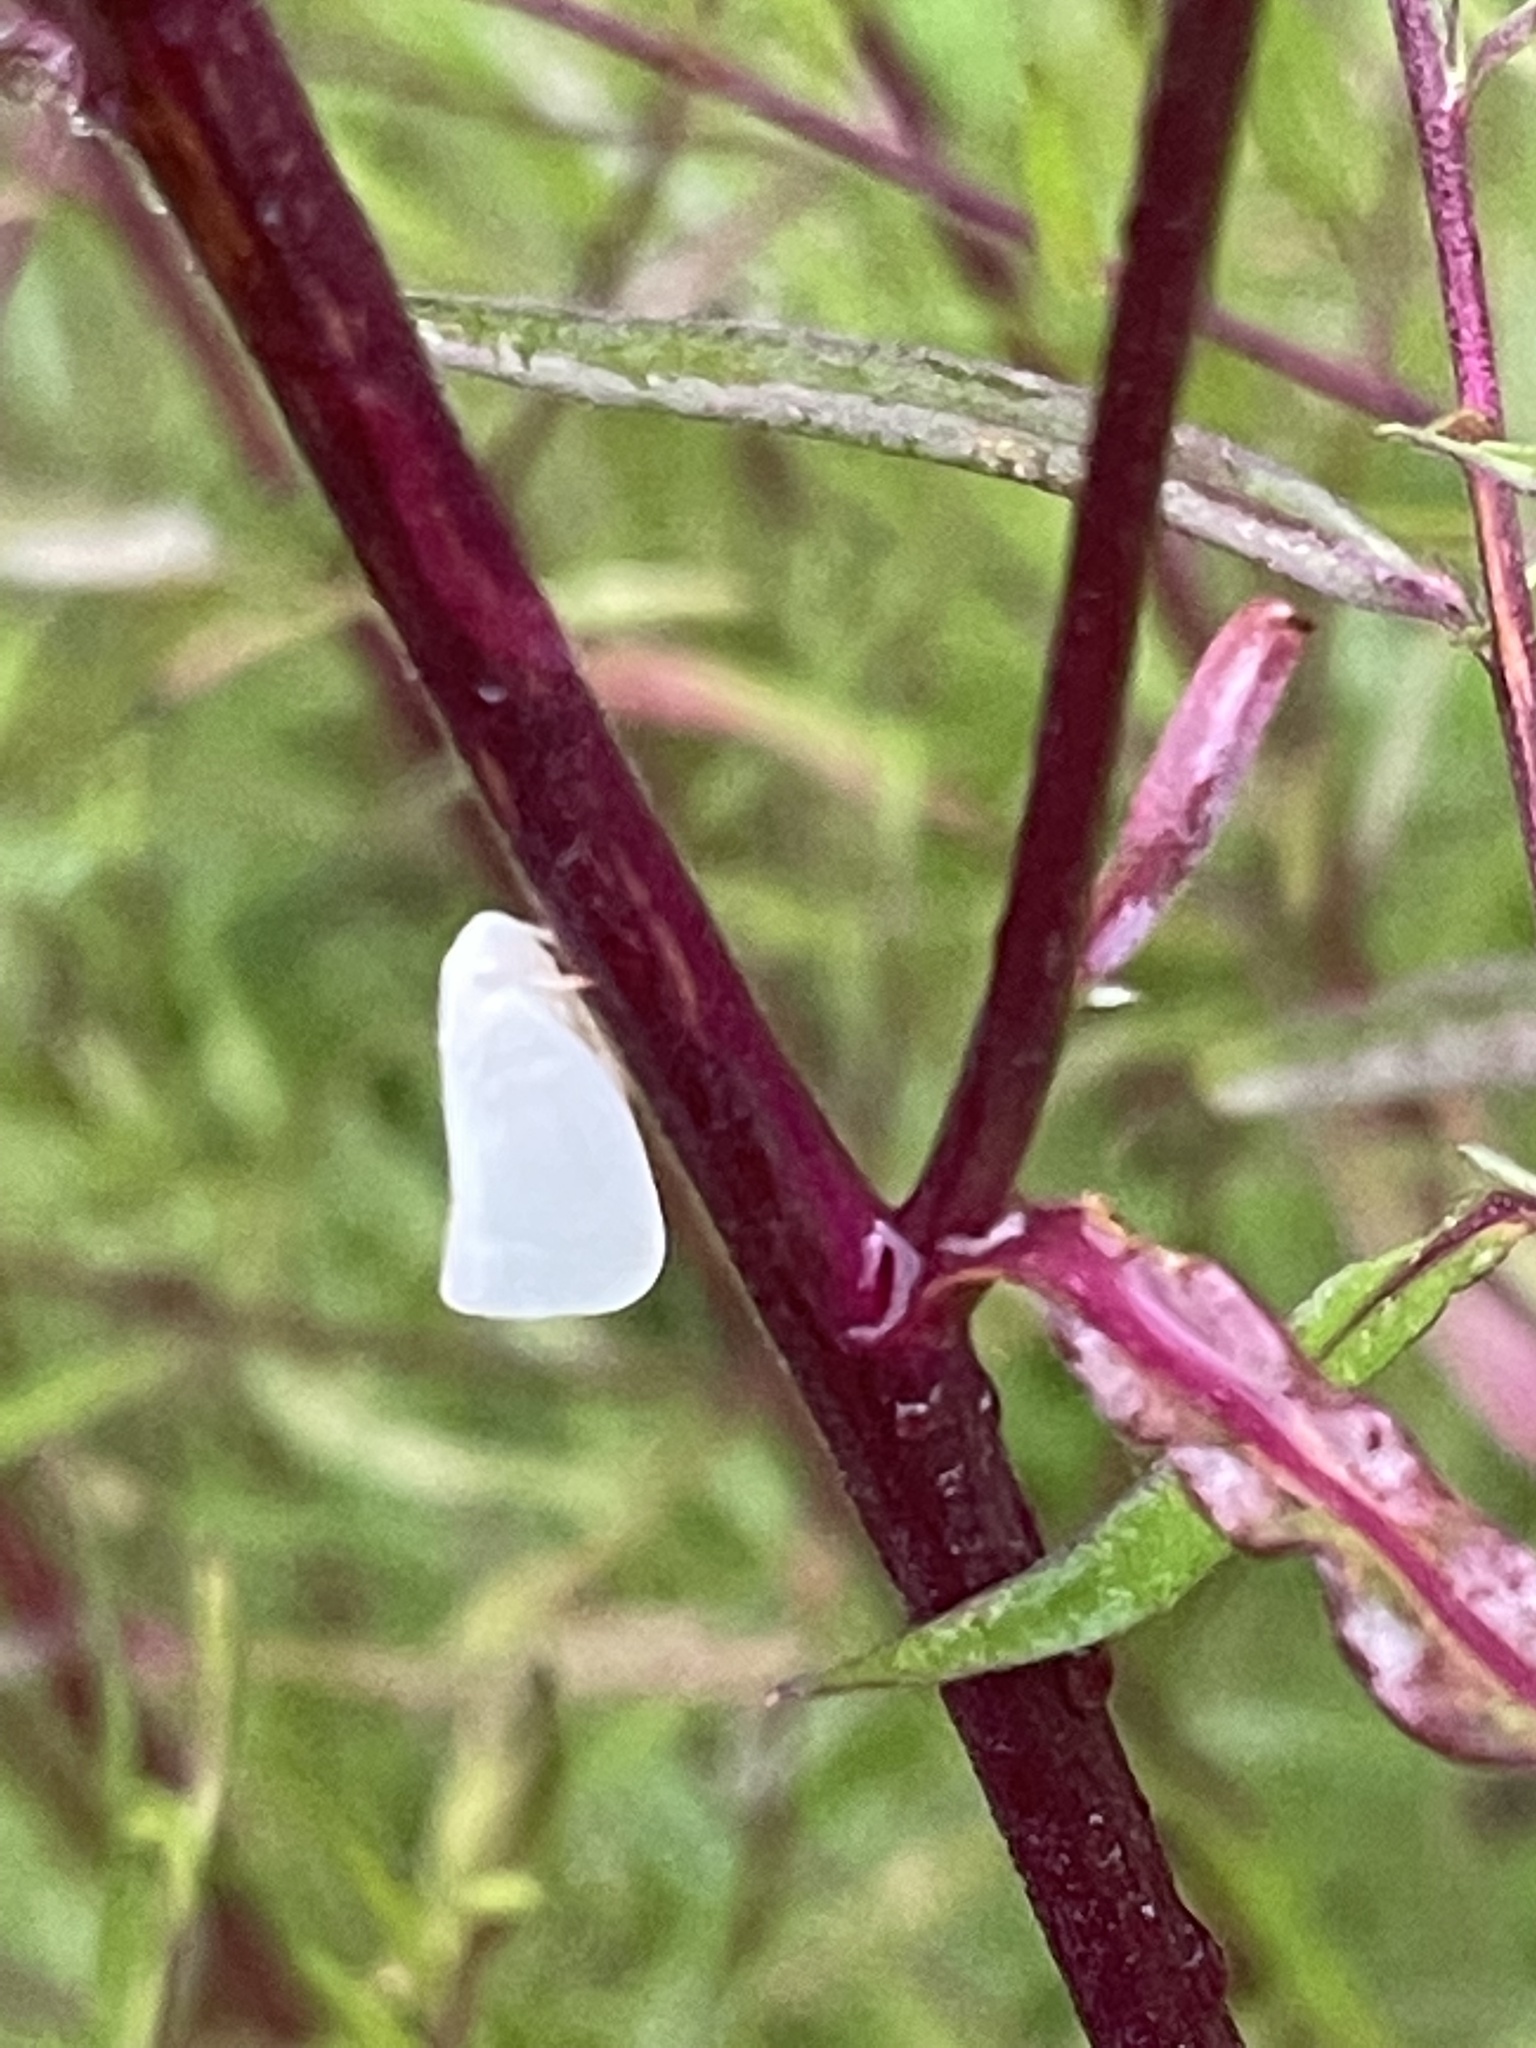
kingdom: Animalia
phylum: Arthropoda
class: Insecta
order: Hemiptera
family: Flatidae
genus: Flatormenis
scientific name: Flatormenis proxima
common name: Northern flatid planthopper
